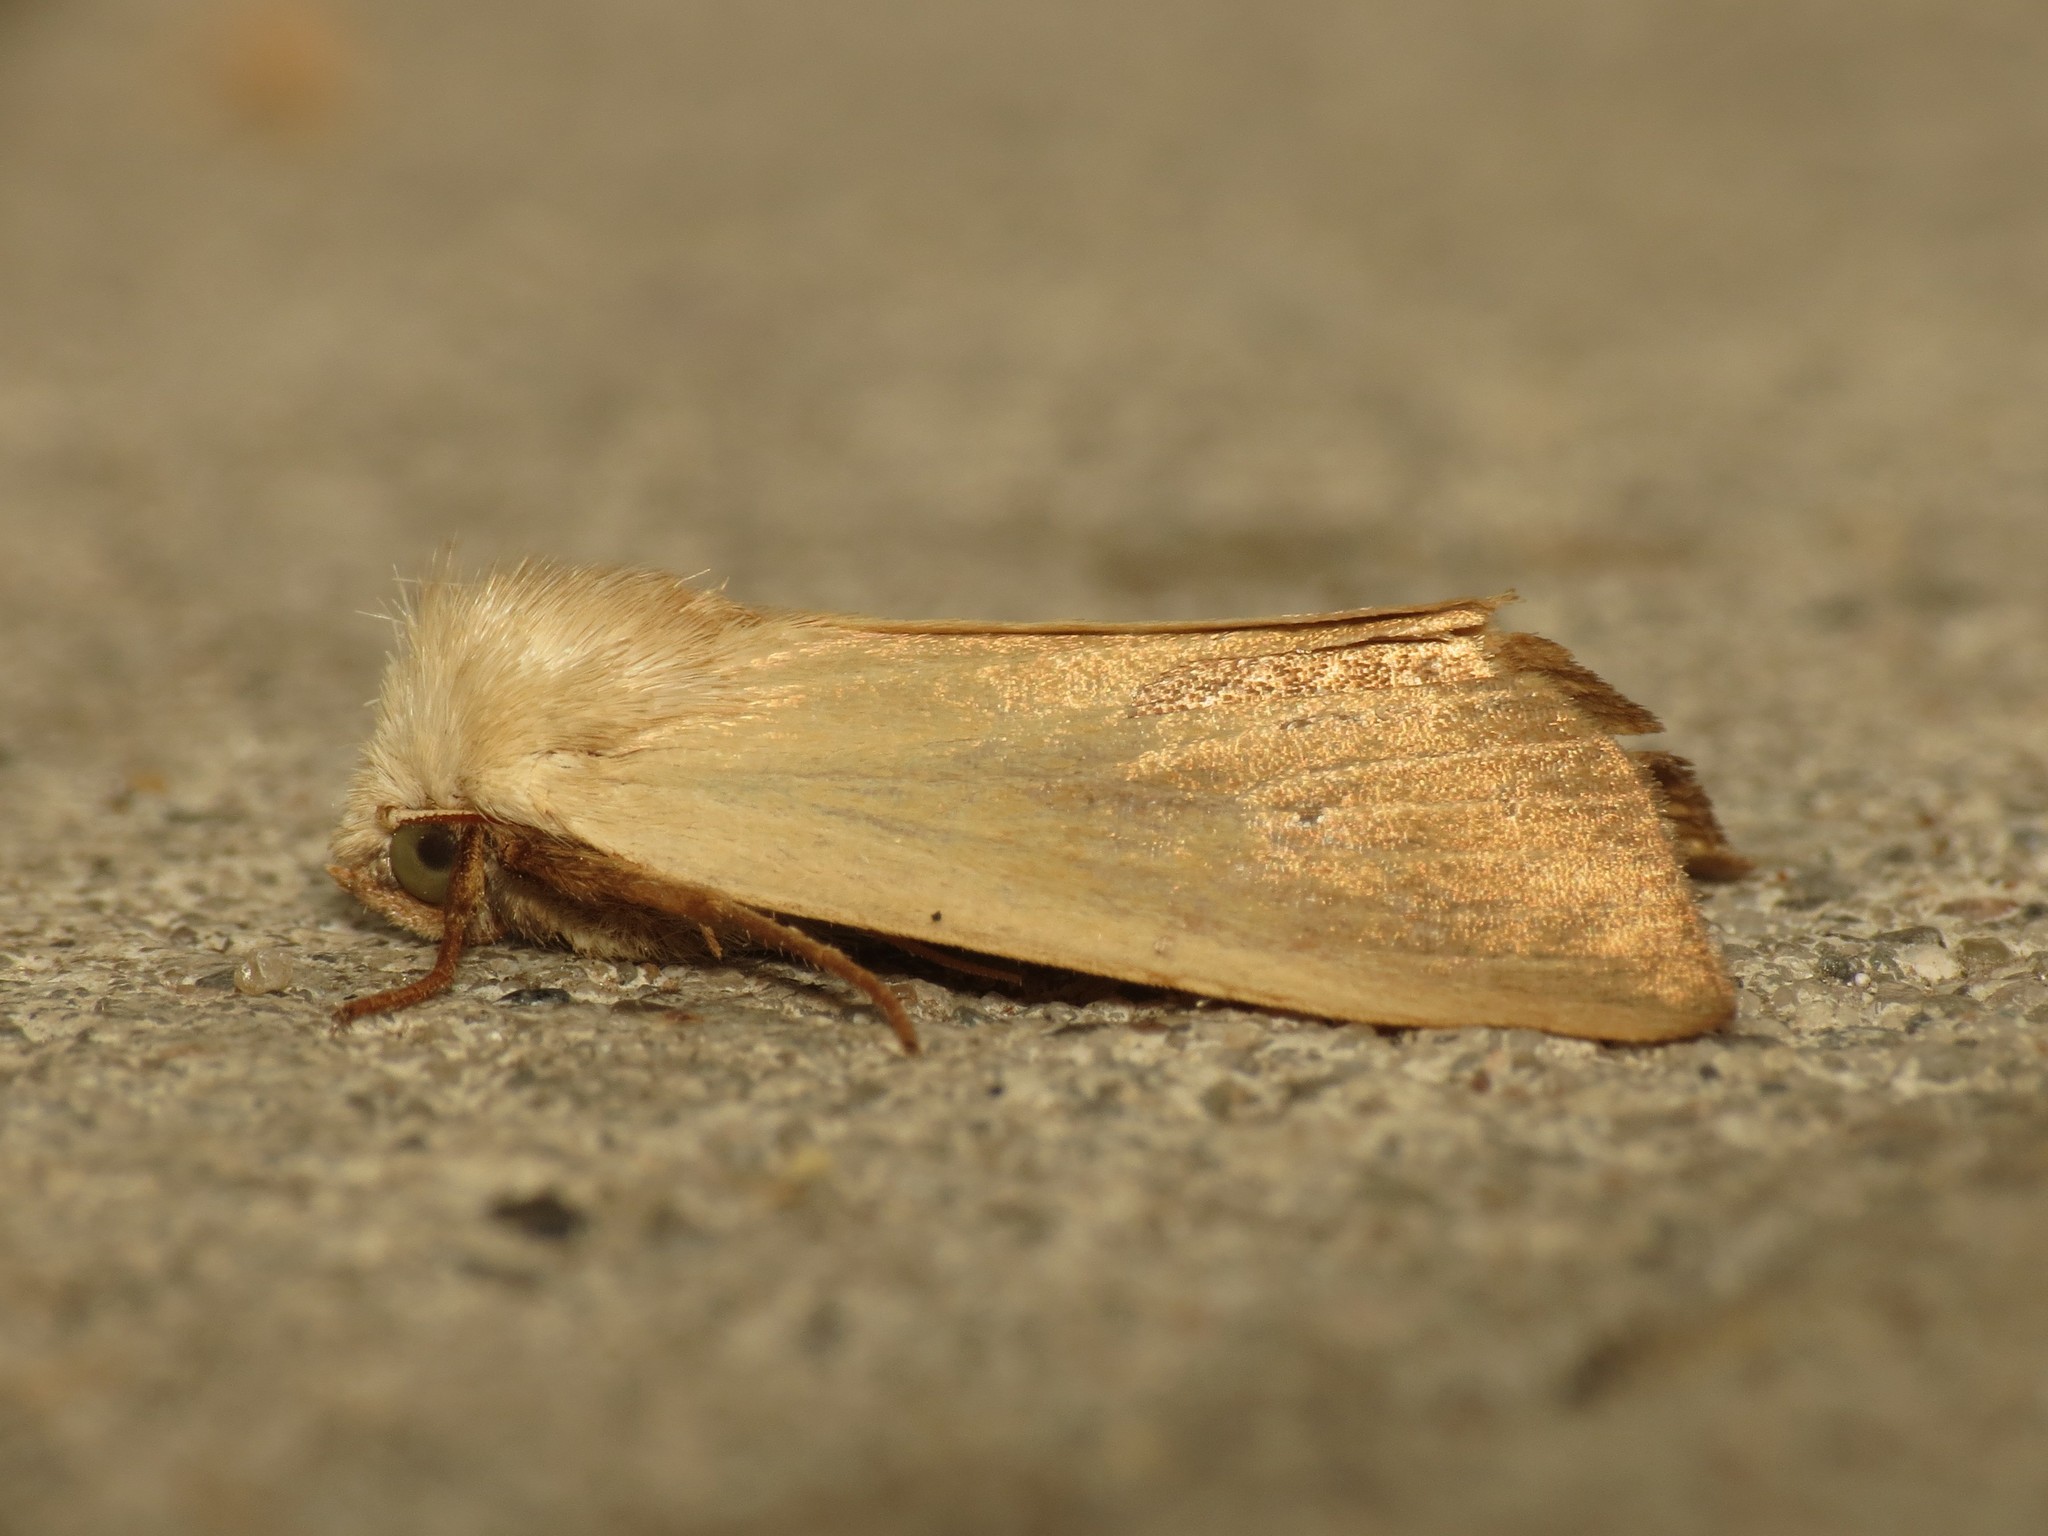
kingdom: Animalia
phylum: Arthropoda
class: Insecta
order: Lepidoptera
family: Noctuidae
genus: Arenostola
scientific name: Arenostola phragmitidis
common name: Fen wainscot
